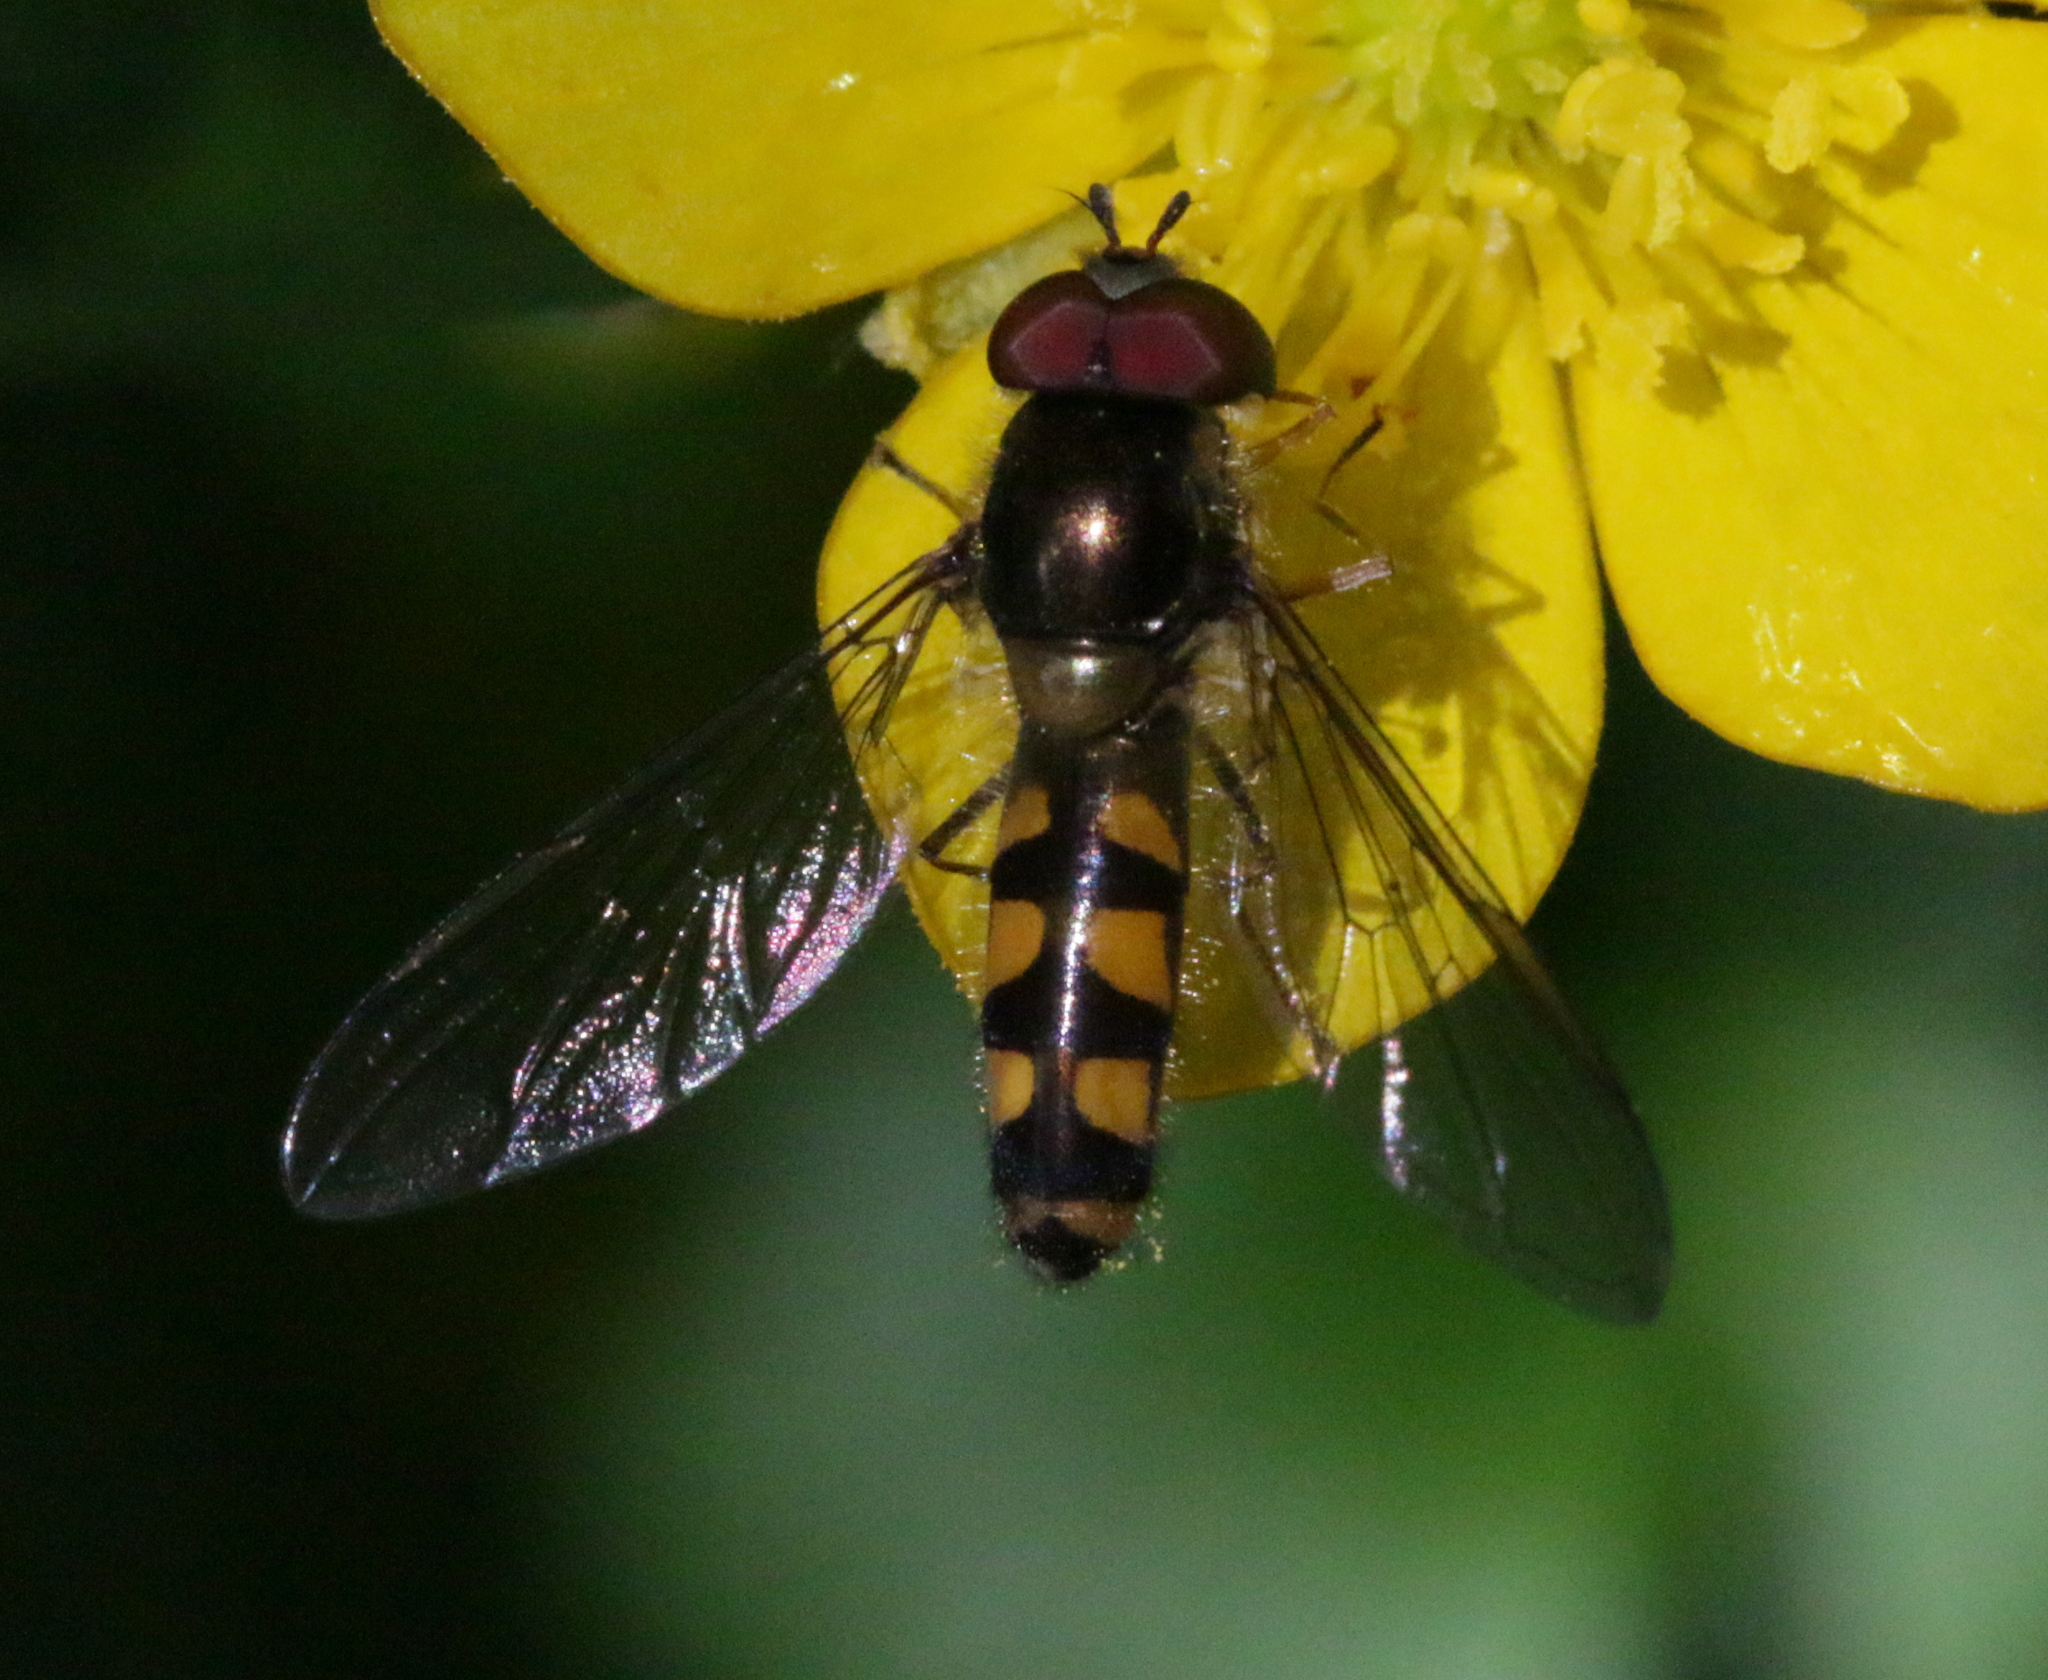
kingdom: Animalia
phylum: Arthropoda
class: Insecta
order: Diptera
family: Syrphidae
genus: Meliscaeva
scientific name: Meliscaeva auricollis
